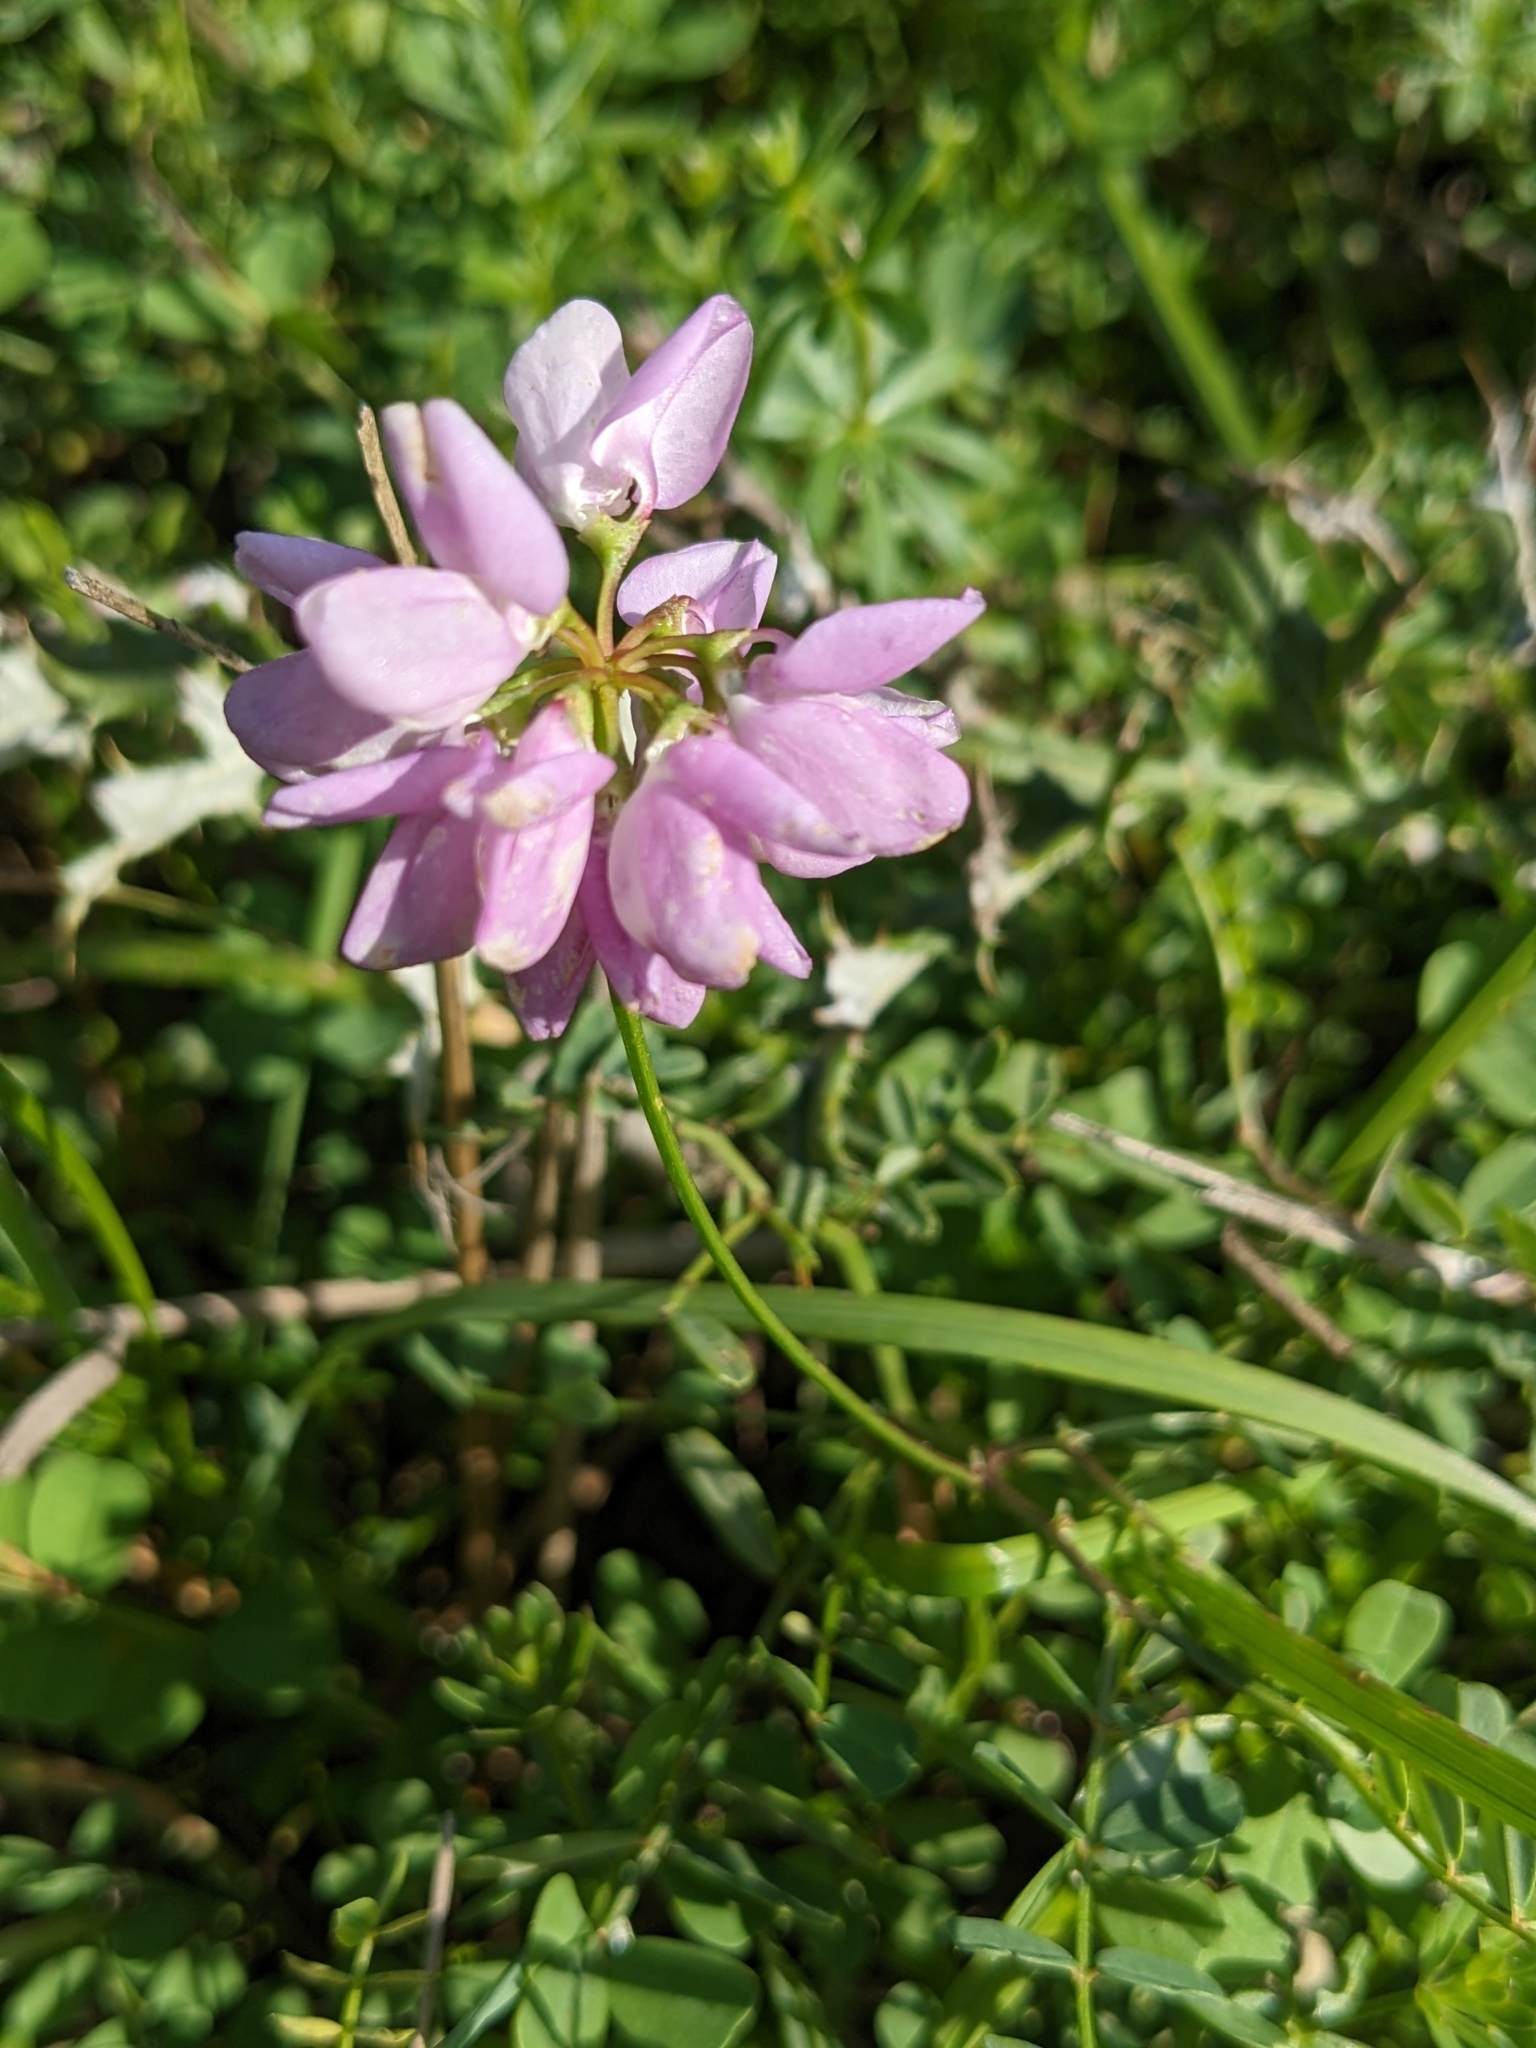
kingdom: Plantae
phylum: Tracheophyta
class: Magnoliopsida
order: Fabales
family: Fabaceae
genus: Coronilla
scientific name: Coronilla varia
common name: Crownvetch
